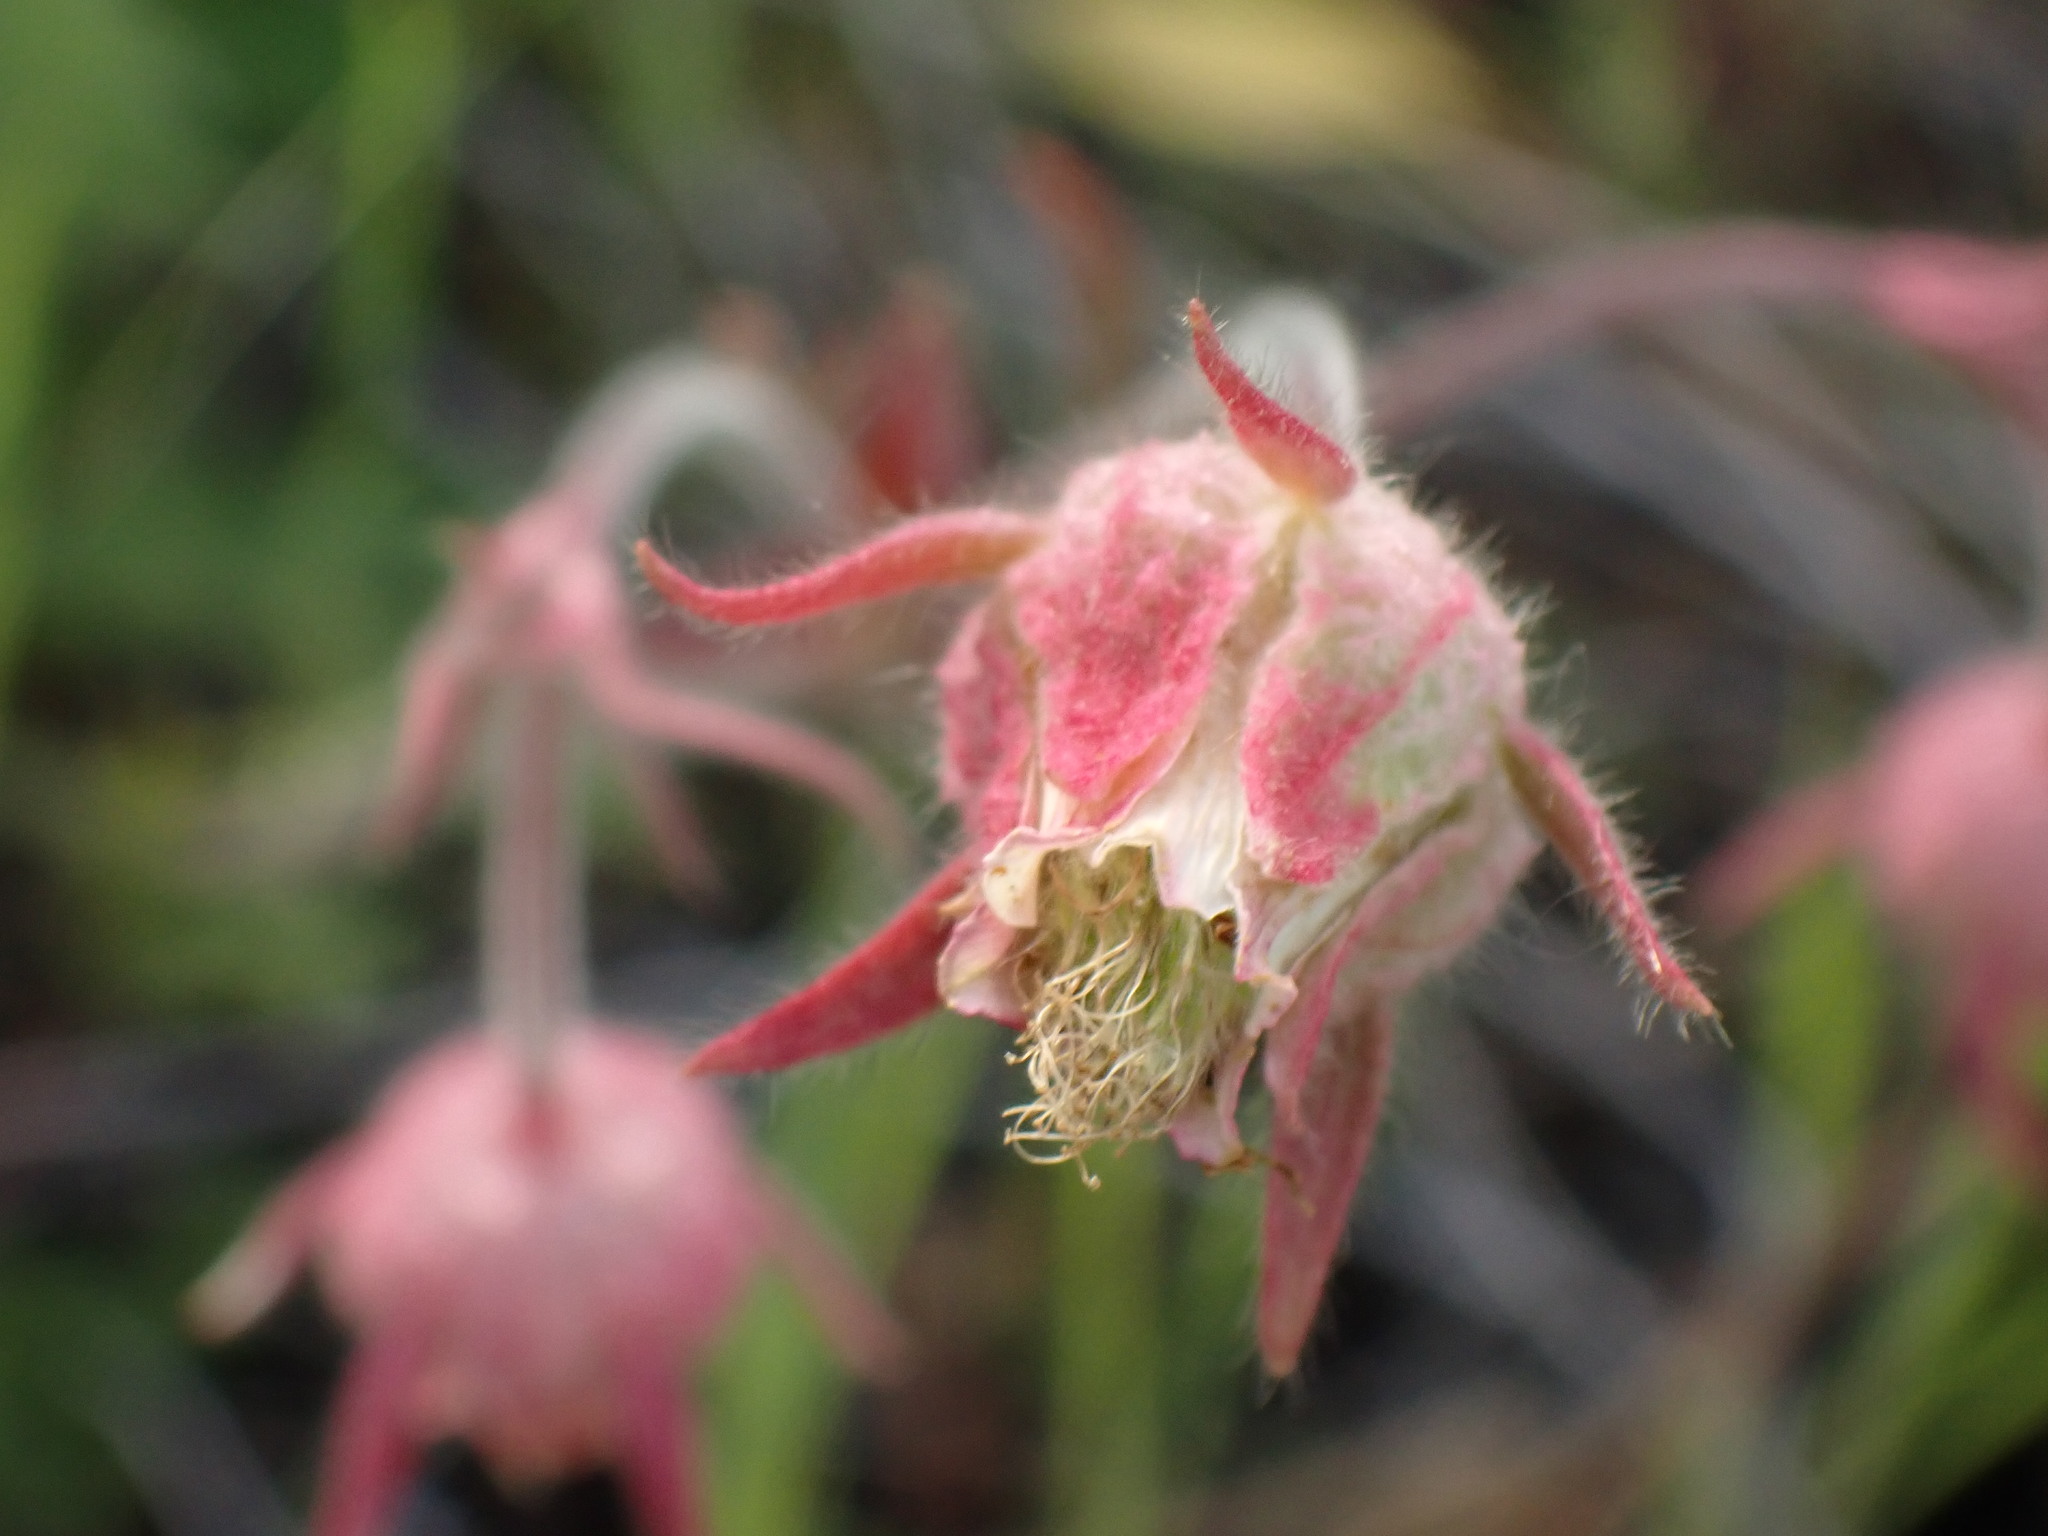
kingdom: Plantae
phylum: Tracheophyta
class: Magnoliopsida
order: Rosales
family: Rosaceae
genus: Geum
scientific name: Geum triflorum
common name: Old man's whiskers
